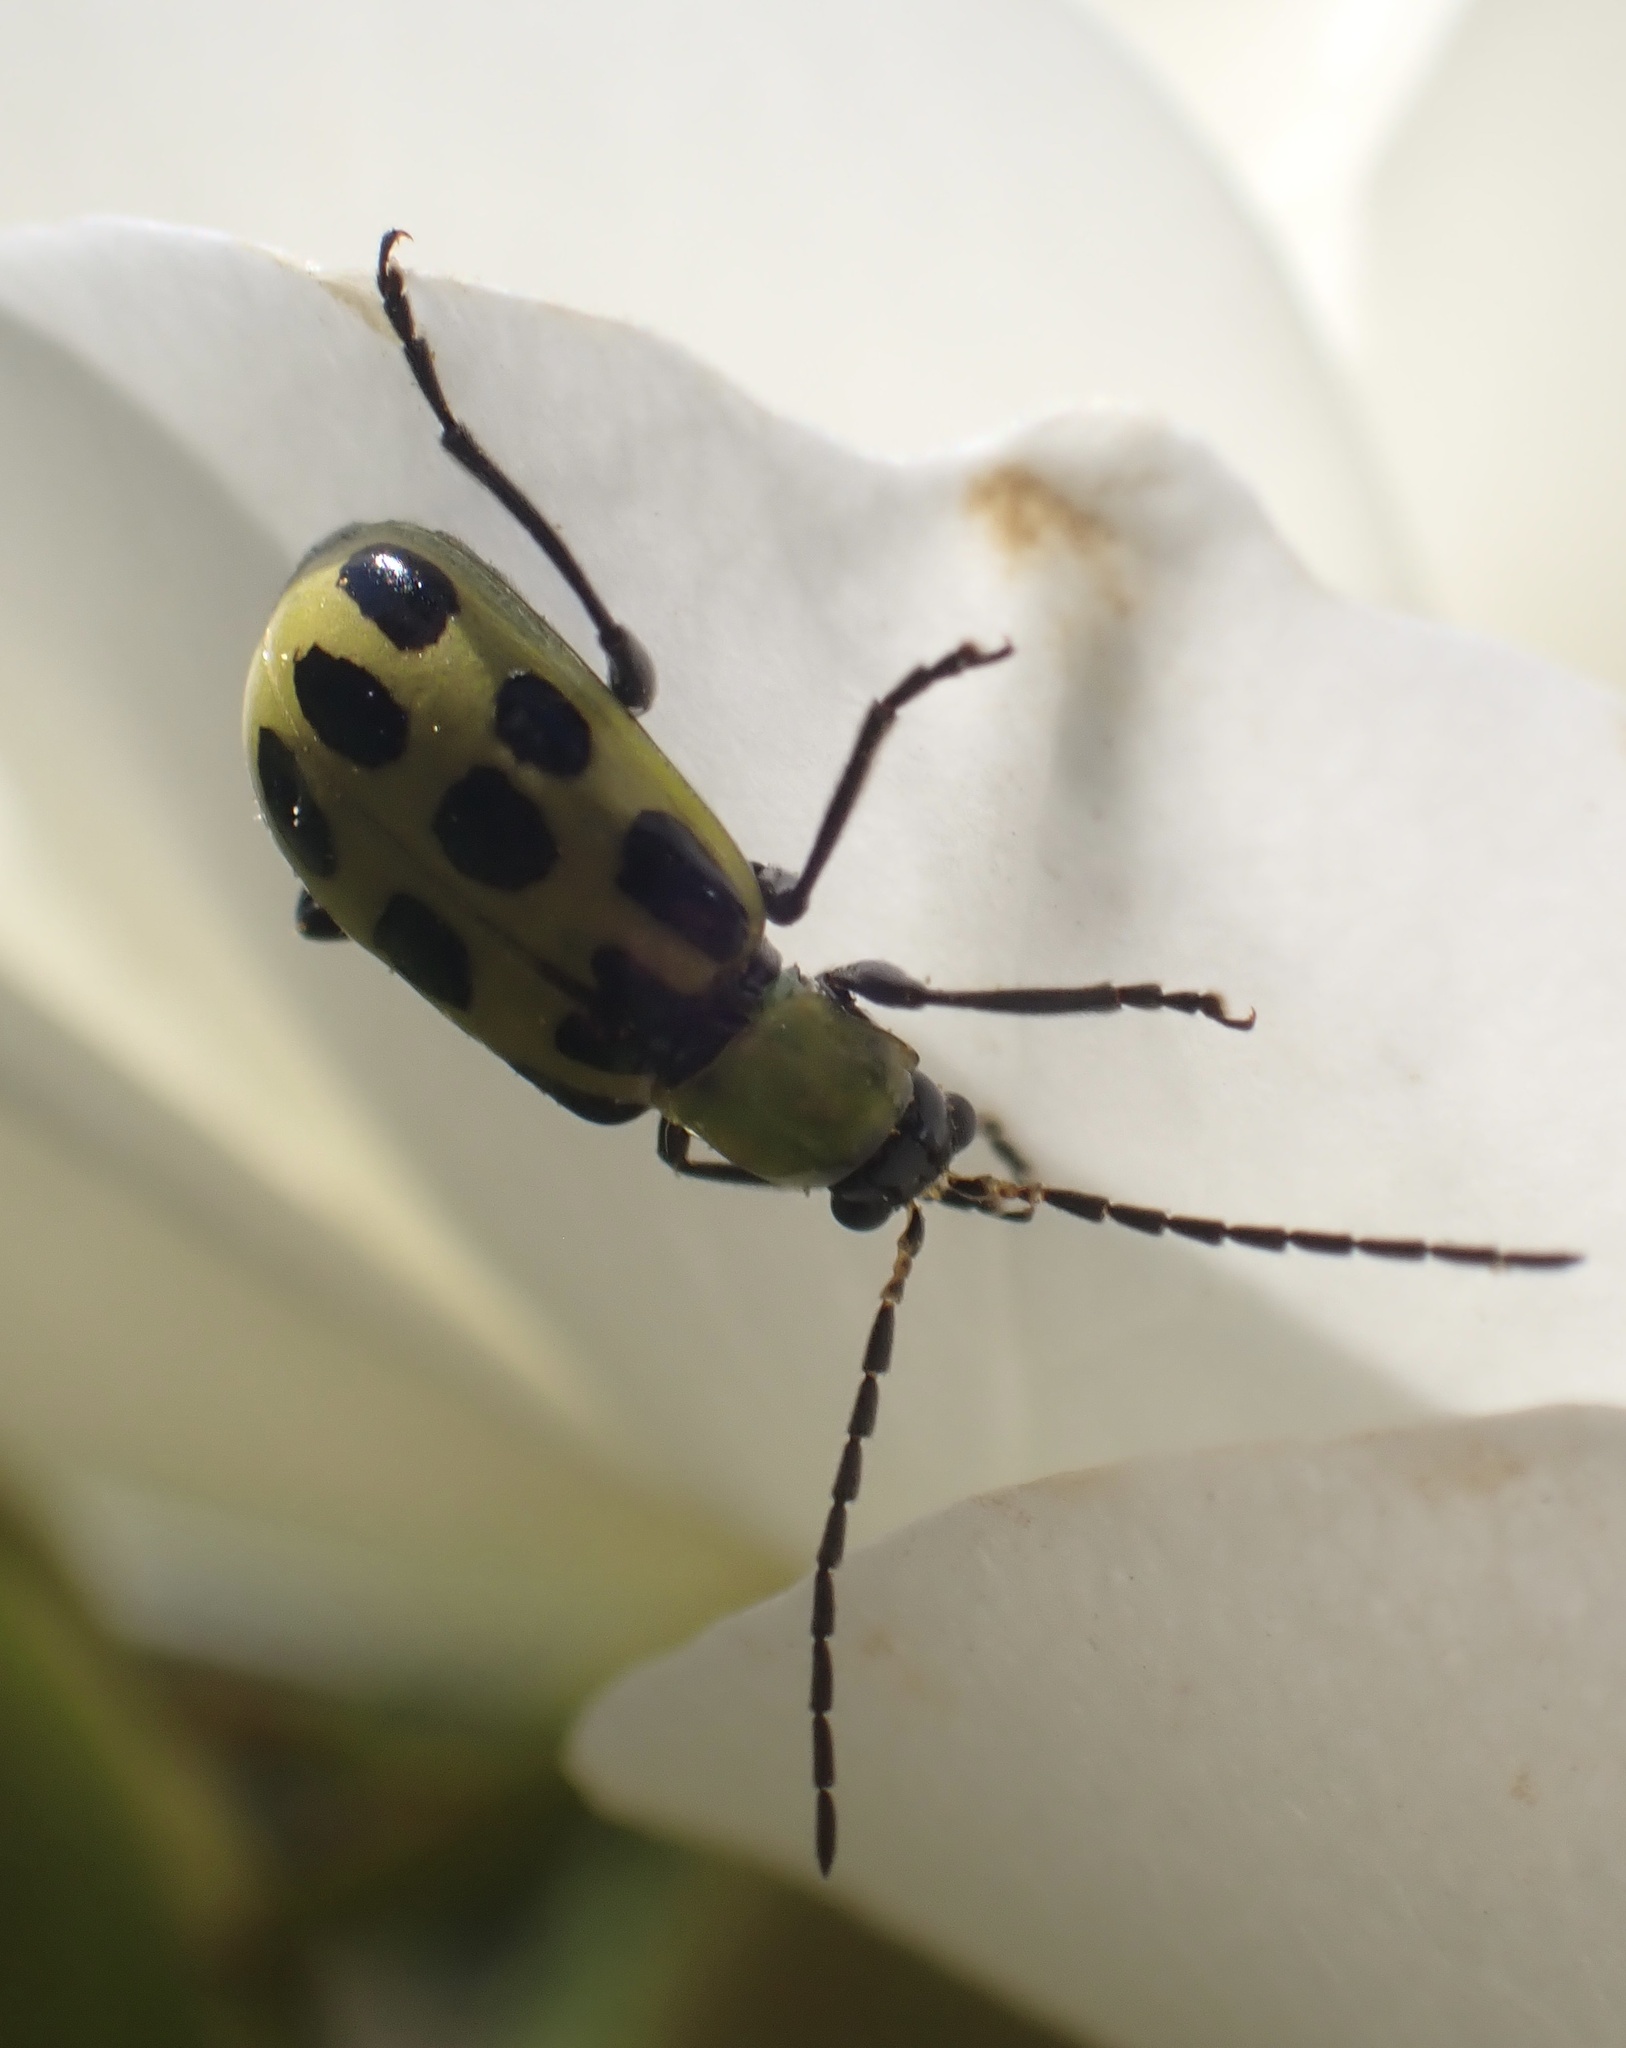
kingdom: Animalia
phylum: Arthropoda
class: Insecta
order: Coleoptera
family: Chrysomelidae
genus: Diabrotica
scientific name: Diabrotica undecimpunctata
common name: Spotted cucumber beetle
